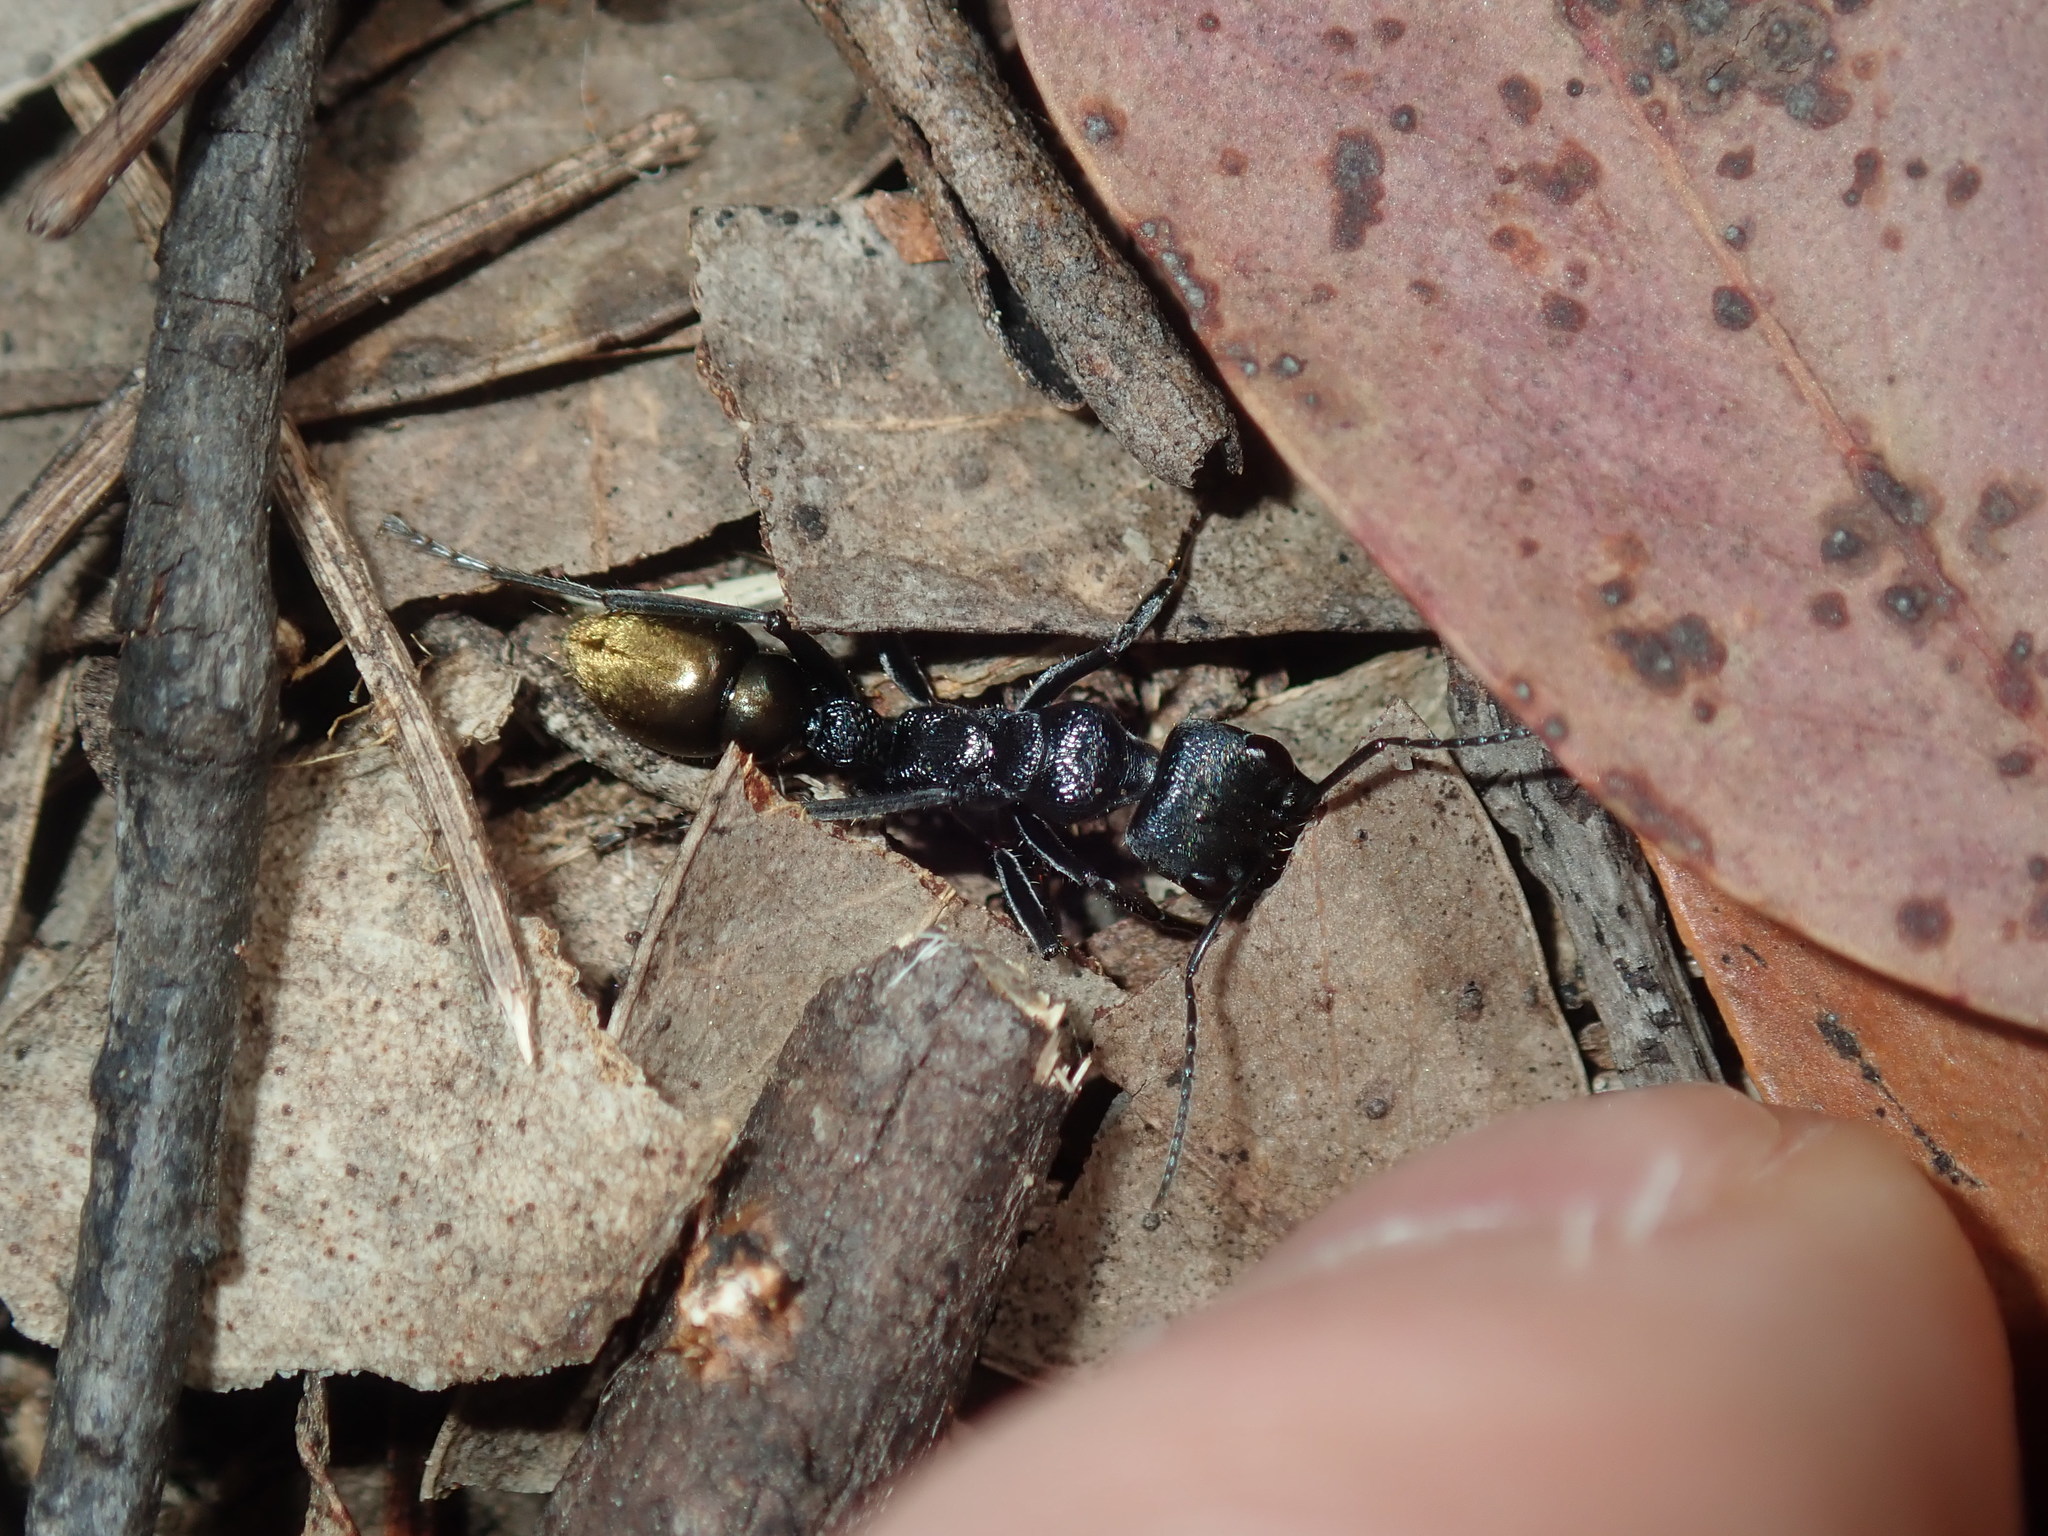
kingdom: Animalia
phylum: Arthropoda
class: Insecta
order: Hymenoptera
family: Formicidae
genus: Myrmecia
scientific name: Myrmecia piliventris
